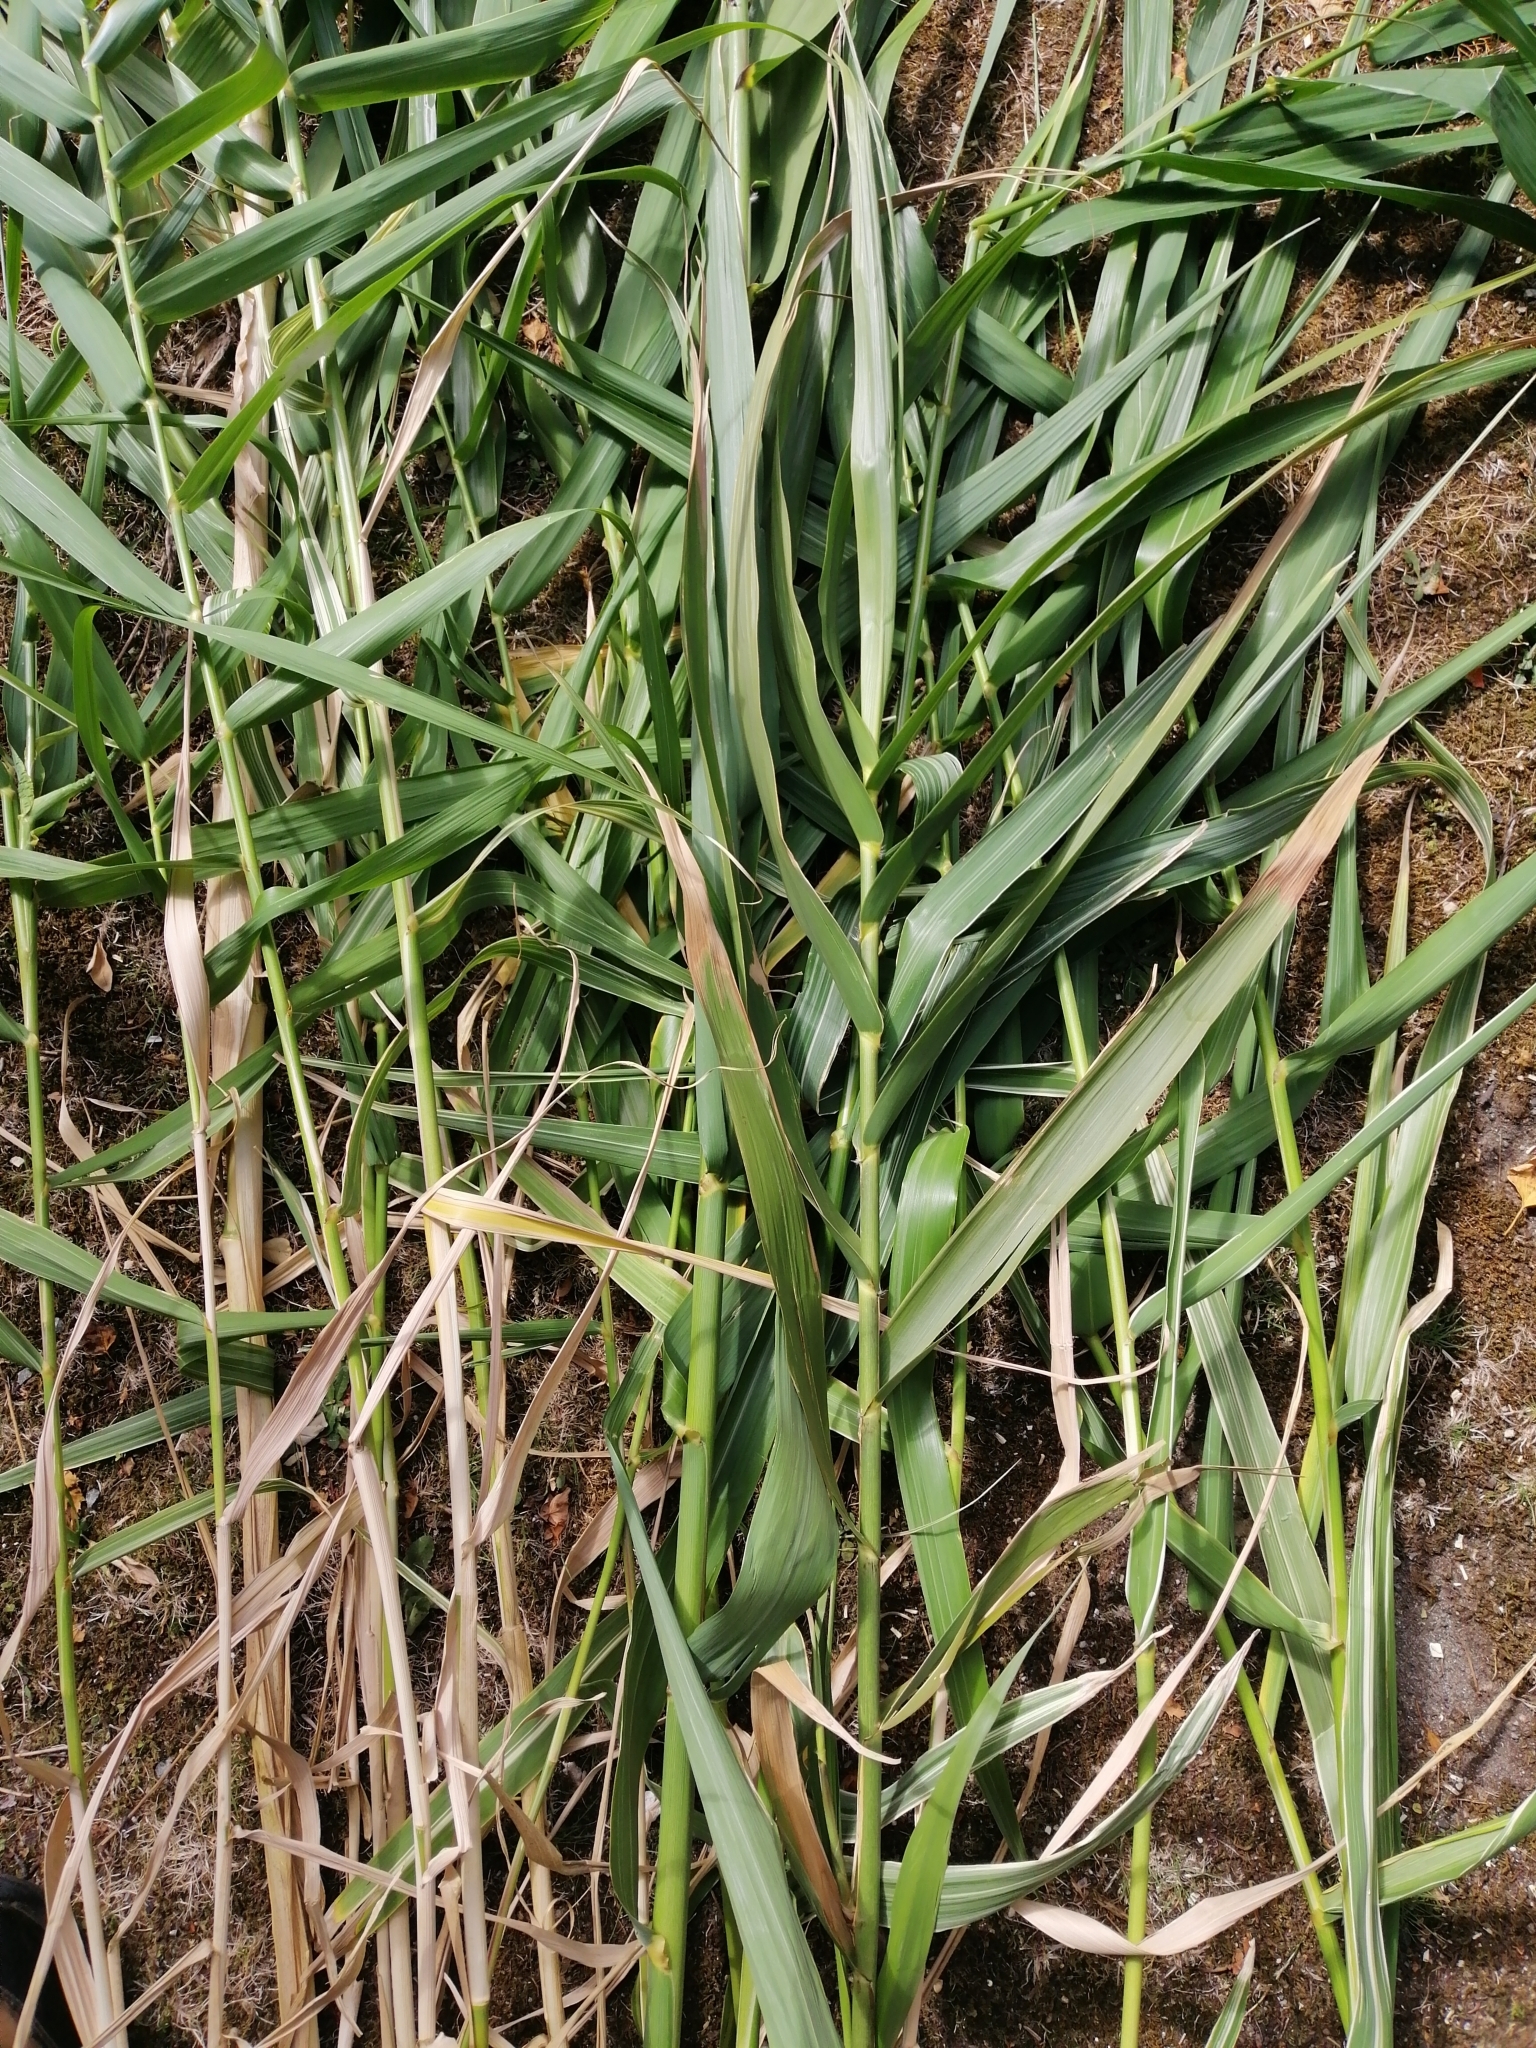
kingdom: Plantae
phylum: Tracheophyta
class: Liliopsida
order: Poales
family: Poaceae
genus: Arundo
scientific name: Arundo donax
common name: Giant reed
